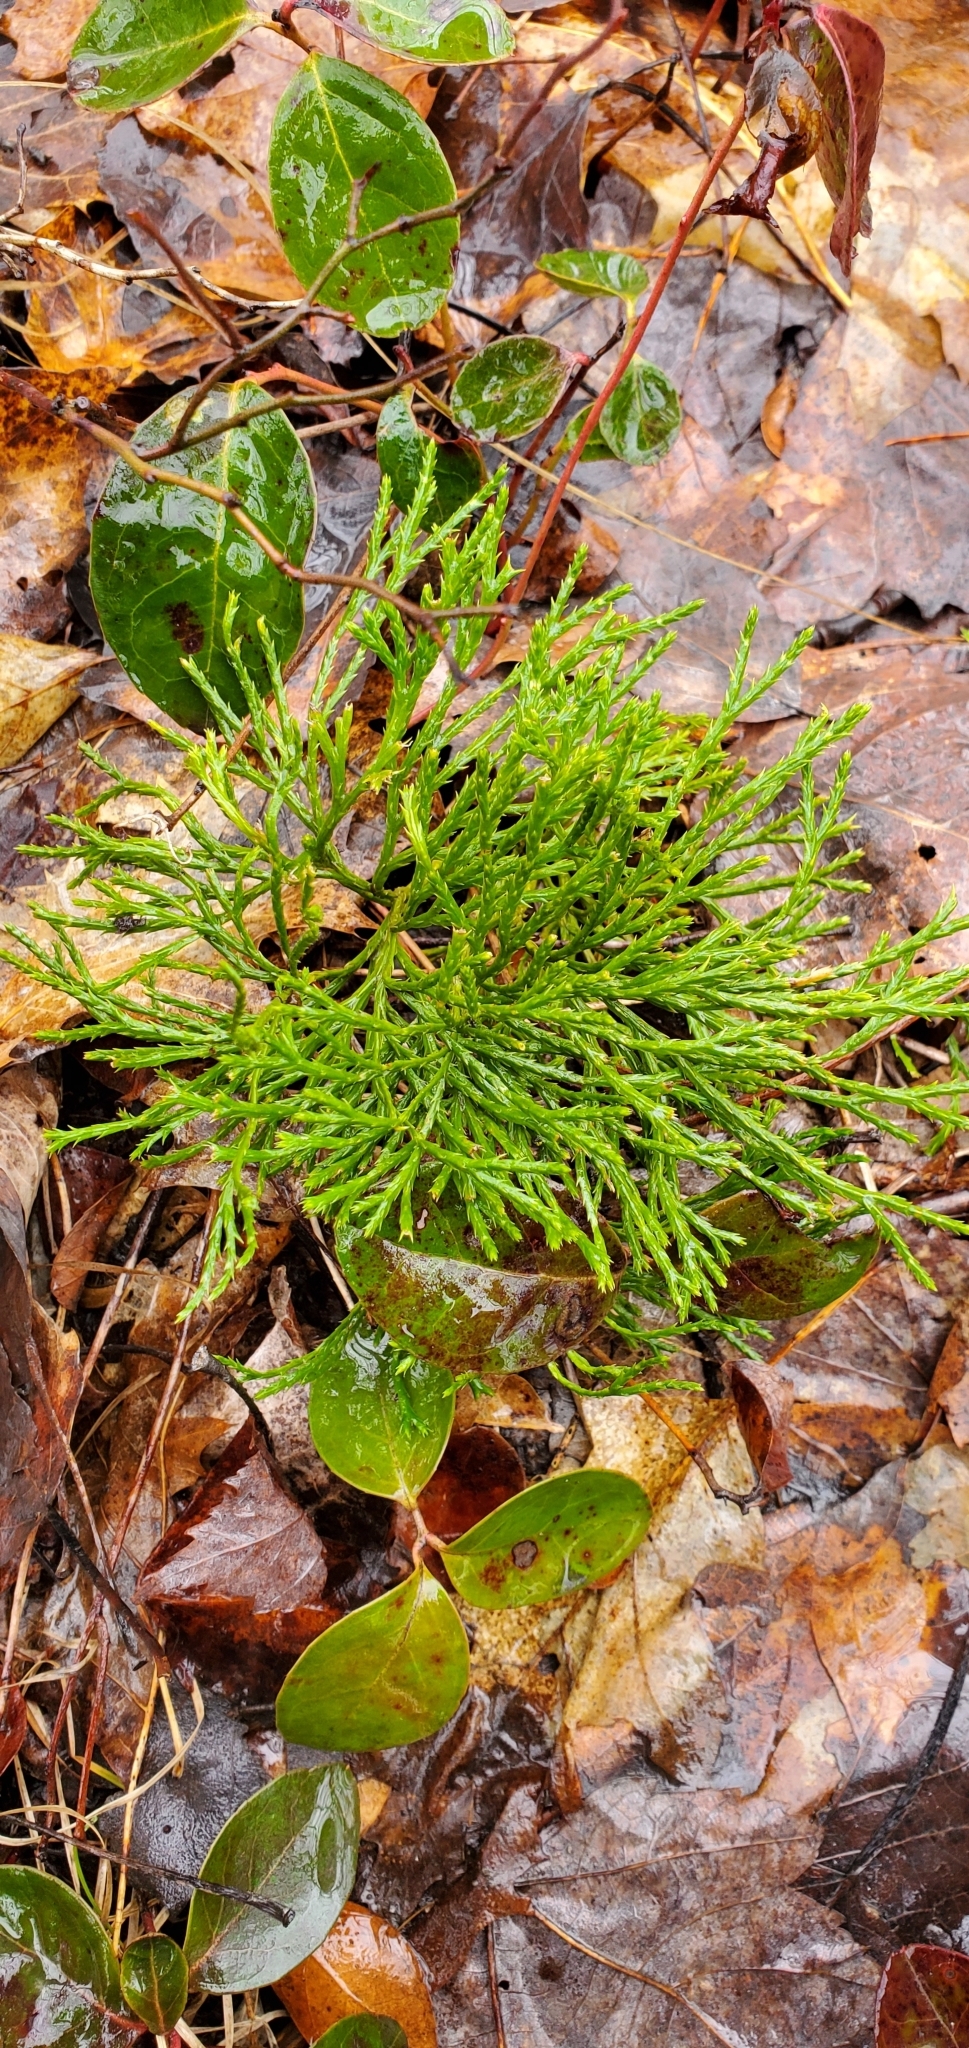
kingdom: Plantae
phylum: Tracheophyta
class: Lycopodiopsida
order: Lycopodiales
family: Lycopodiaceae
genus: Diphasiastrum
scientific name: Diphasiastrum complanatum
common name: Northern running-pine
